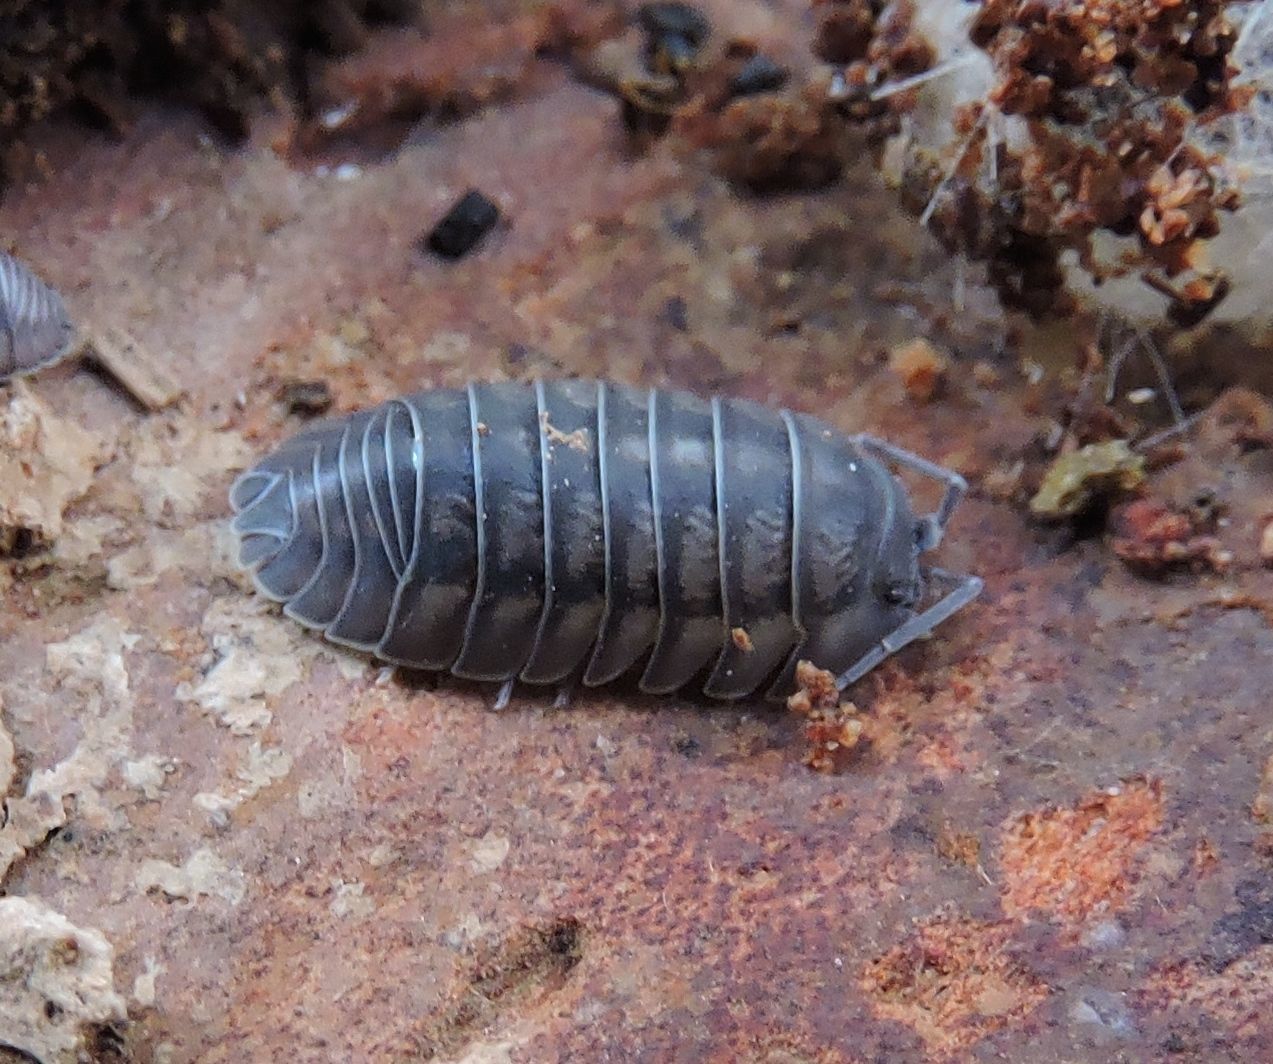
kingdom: Animalia
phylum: Arthropoda
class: Malacostraca
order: Isopoda
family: Armadillidiidae
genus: Armadillidium
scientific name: Armadillidium nasatum
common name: Isopod
